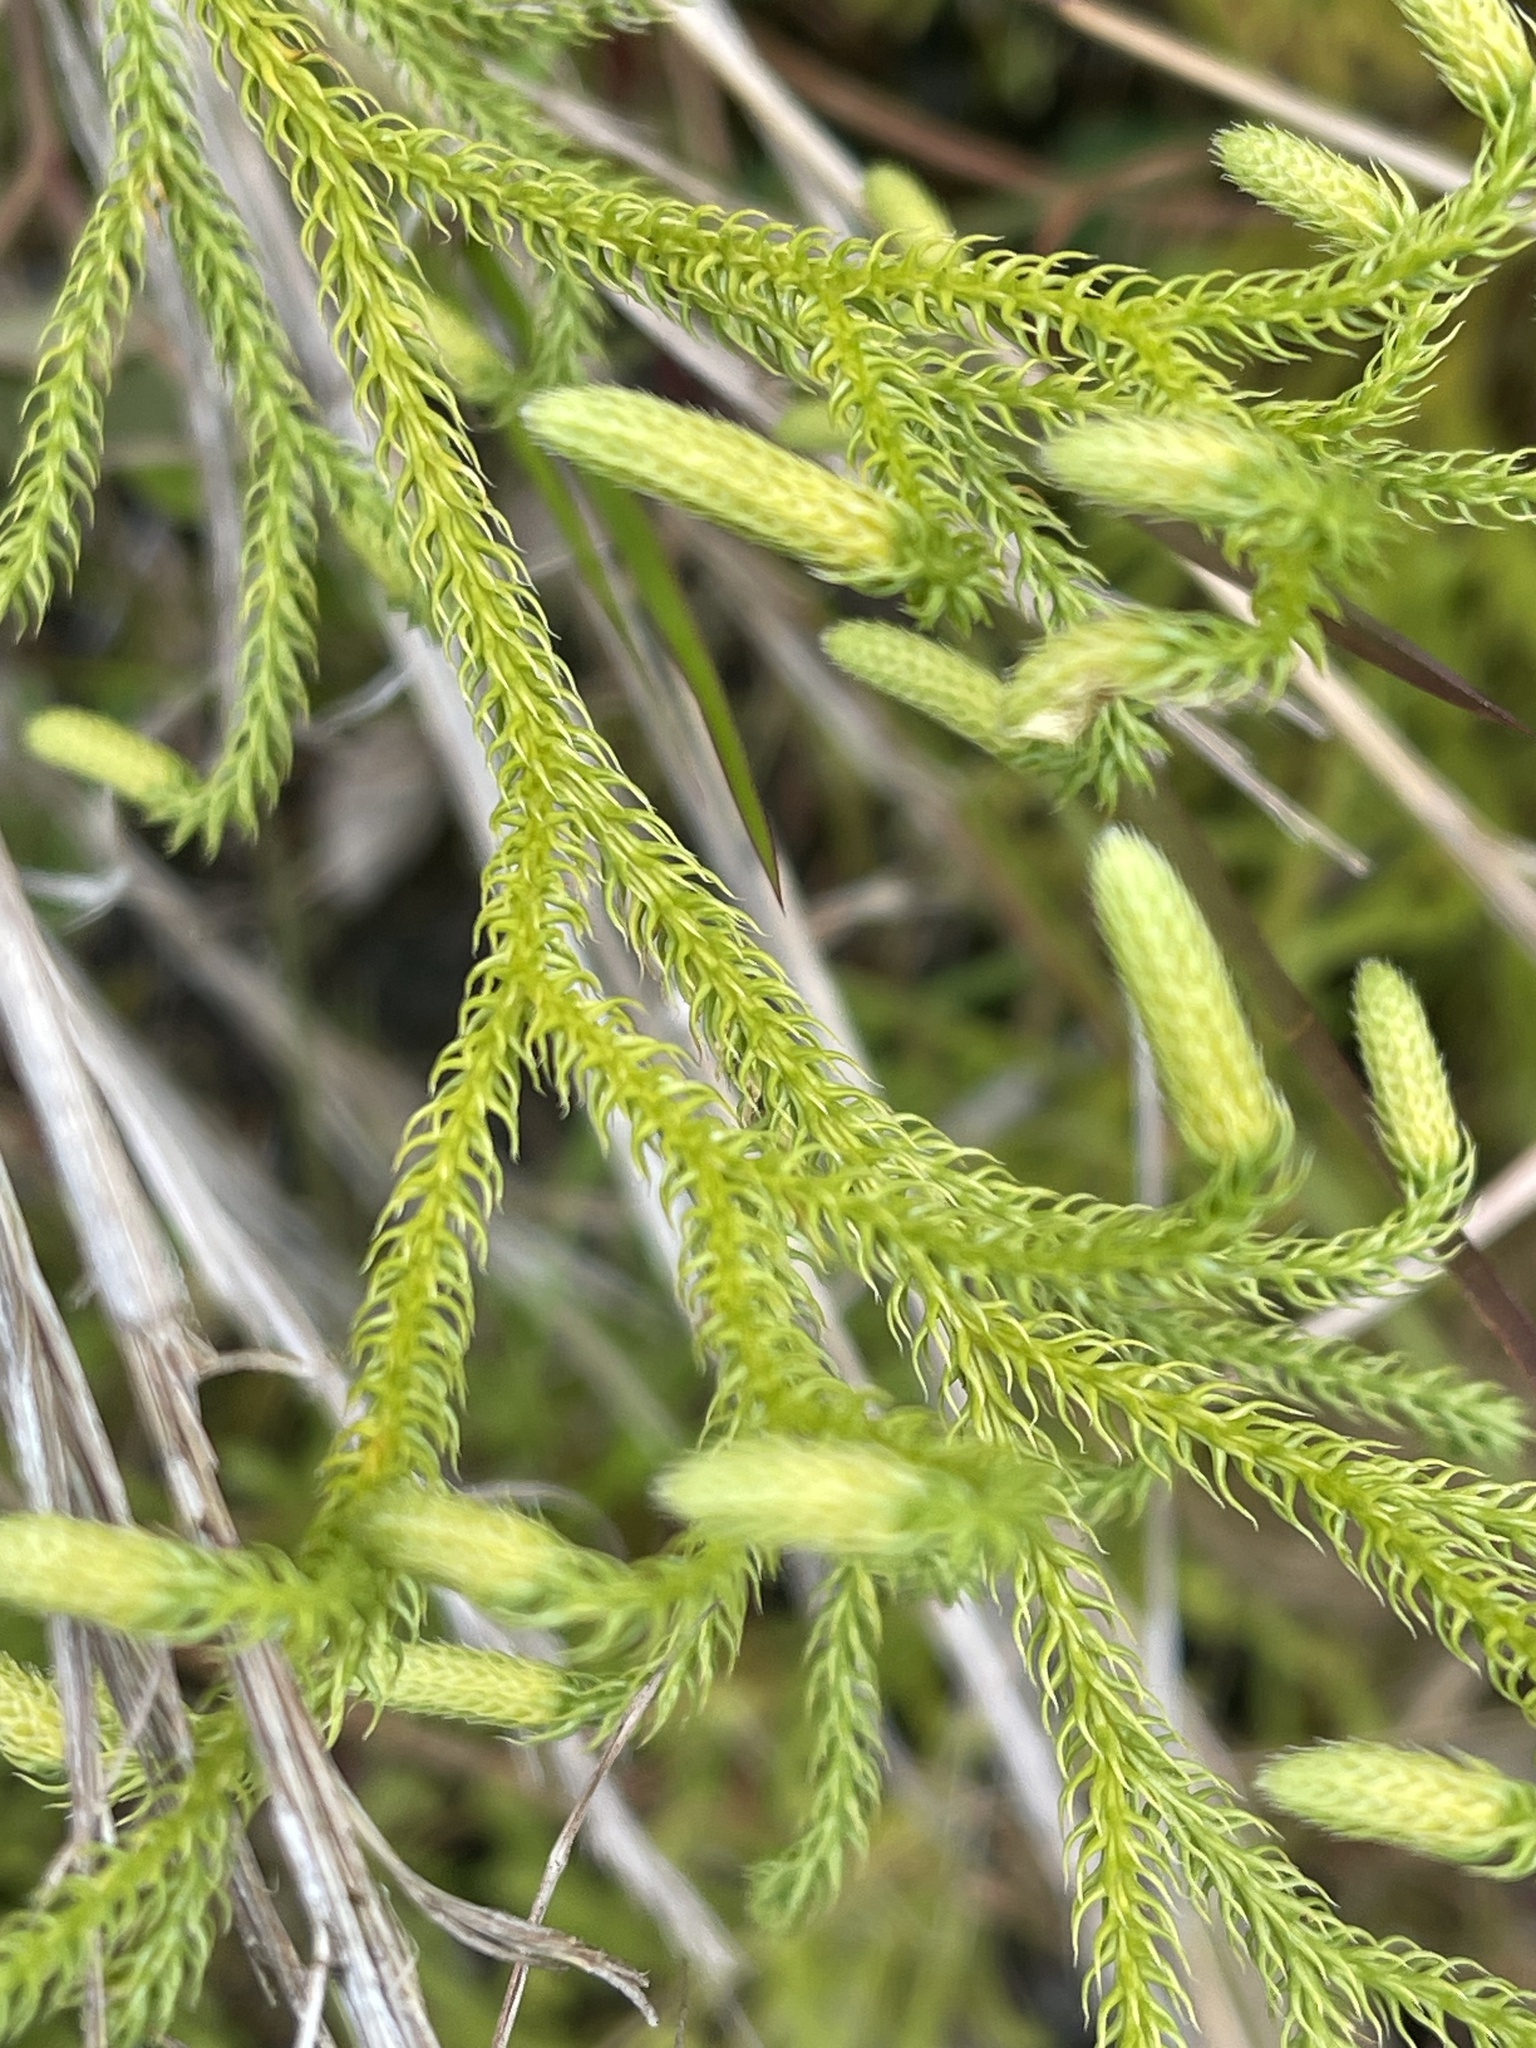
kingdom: Plantae
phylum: Tracheophyta
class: Lycopodiopsida
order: Lycopodiales
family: Lycopodiaceae
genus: Palhinhaea
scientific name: Palhinhaea cernua
